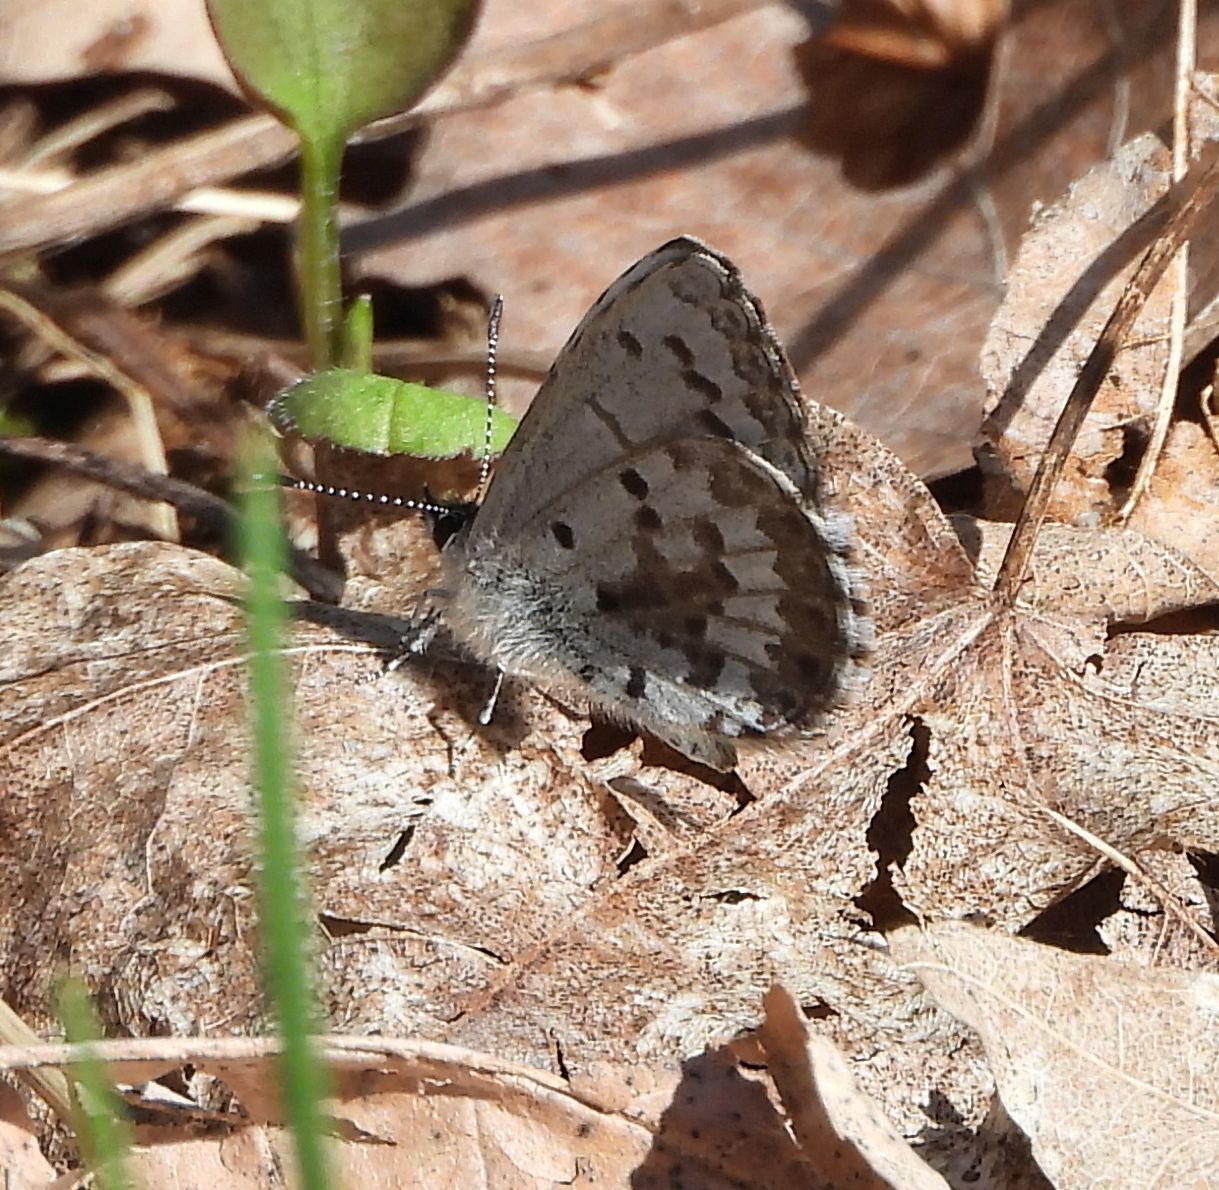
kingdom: Animalia
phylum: Arthropoda
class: Insecta
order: Lepidoptera
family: Lycaenidae
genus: Celastrina
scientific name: Celastrina lucia
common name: Lucia azure
